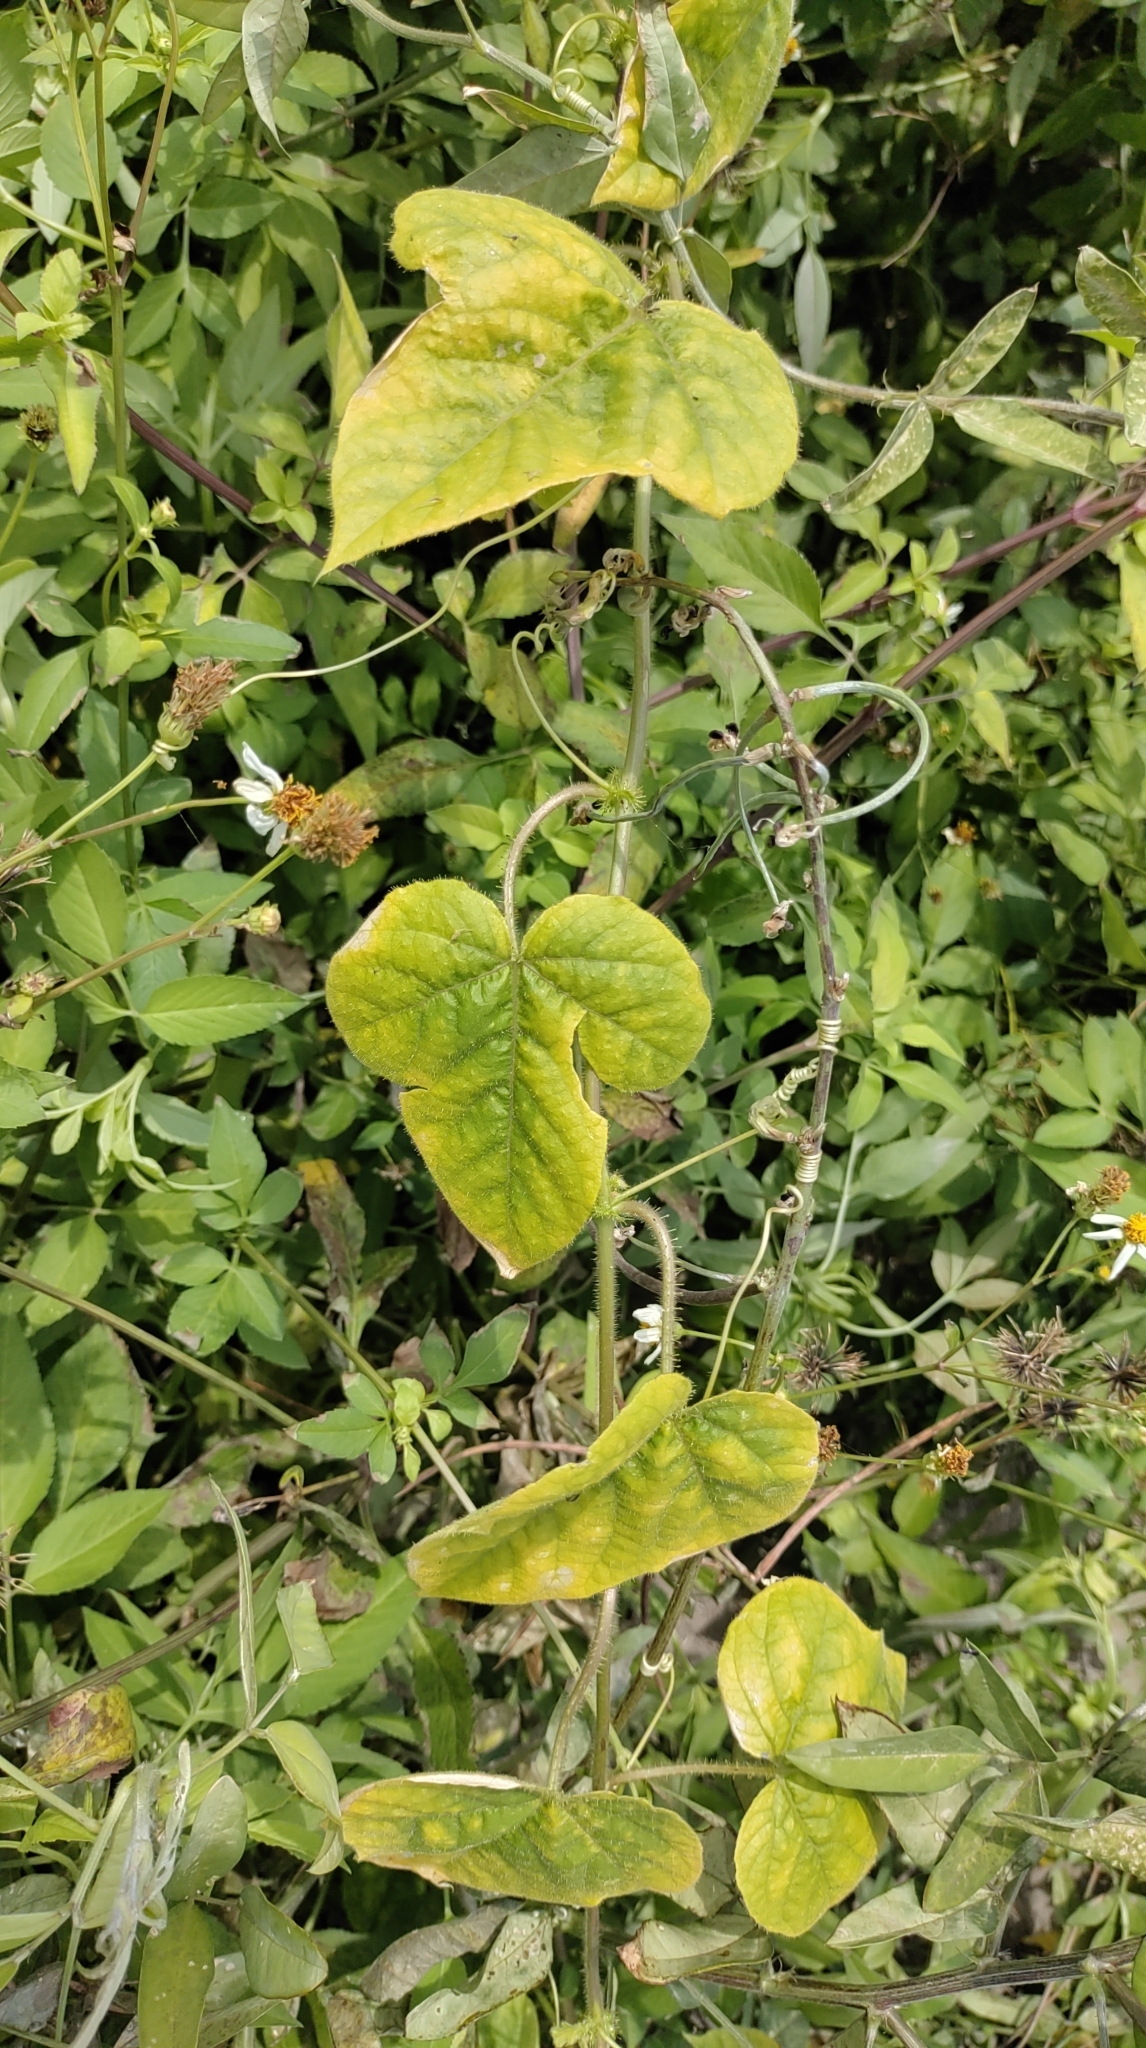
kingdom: Plantae
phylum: Tracheophyta
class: Magnoliopsida
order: Malpighiales
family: Passifloraceae
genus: Passiflora
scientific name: Passiflora vesicaria
